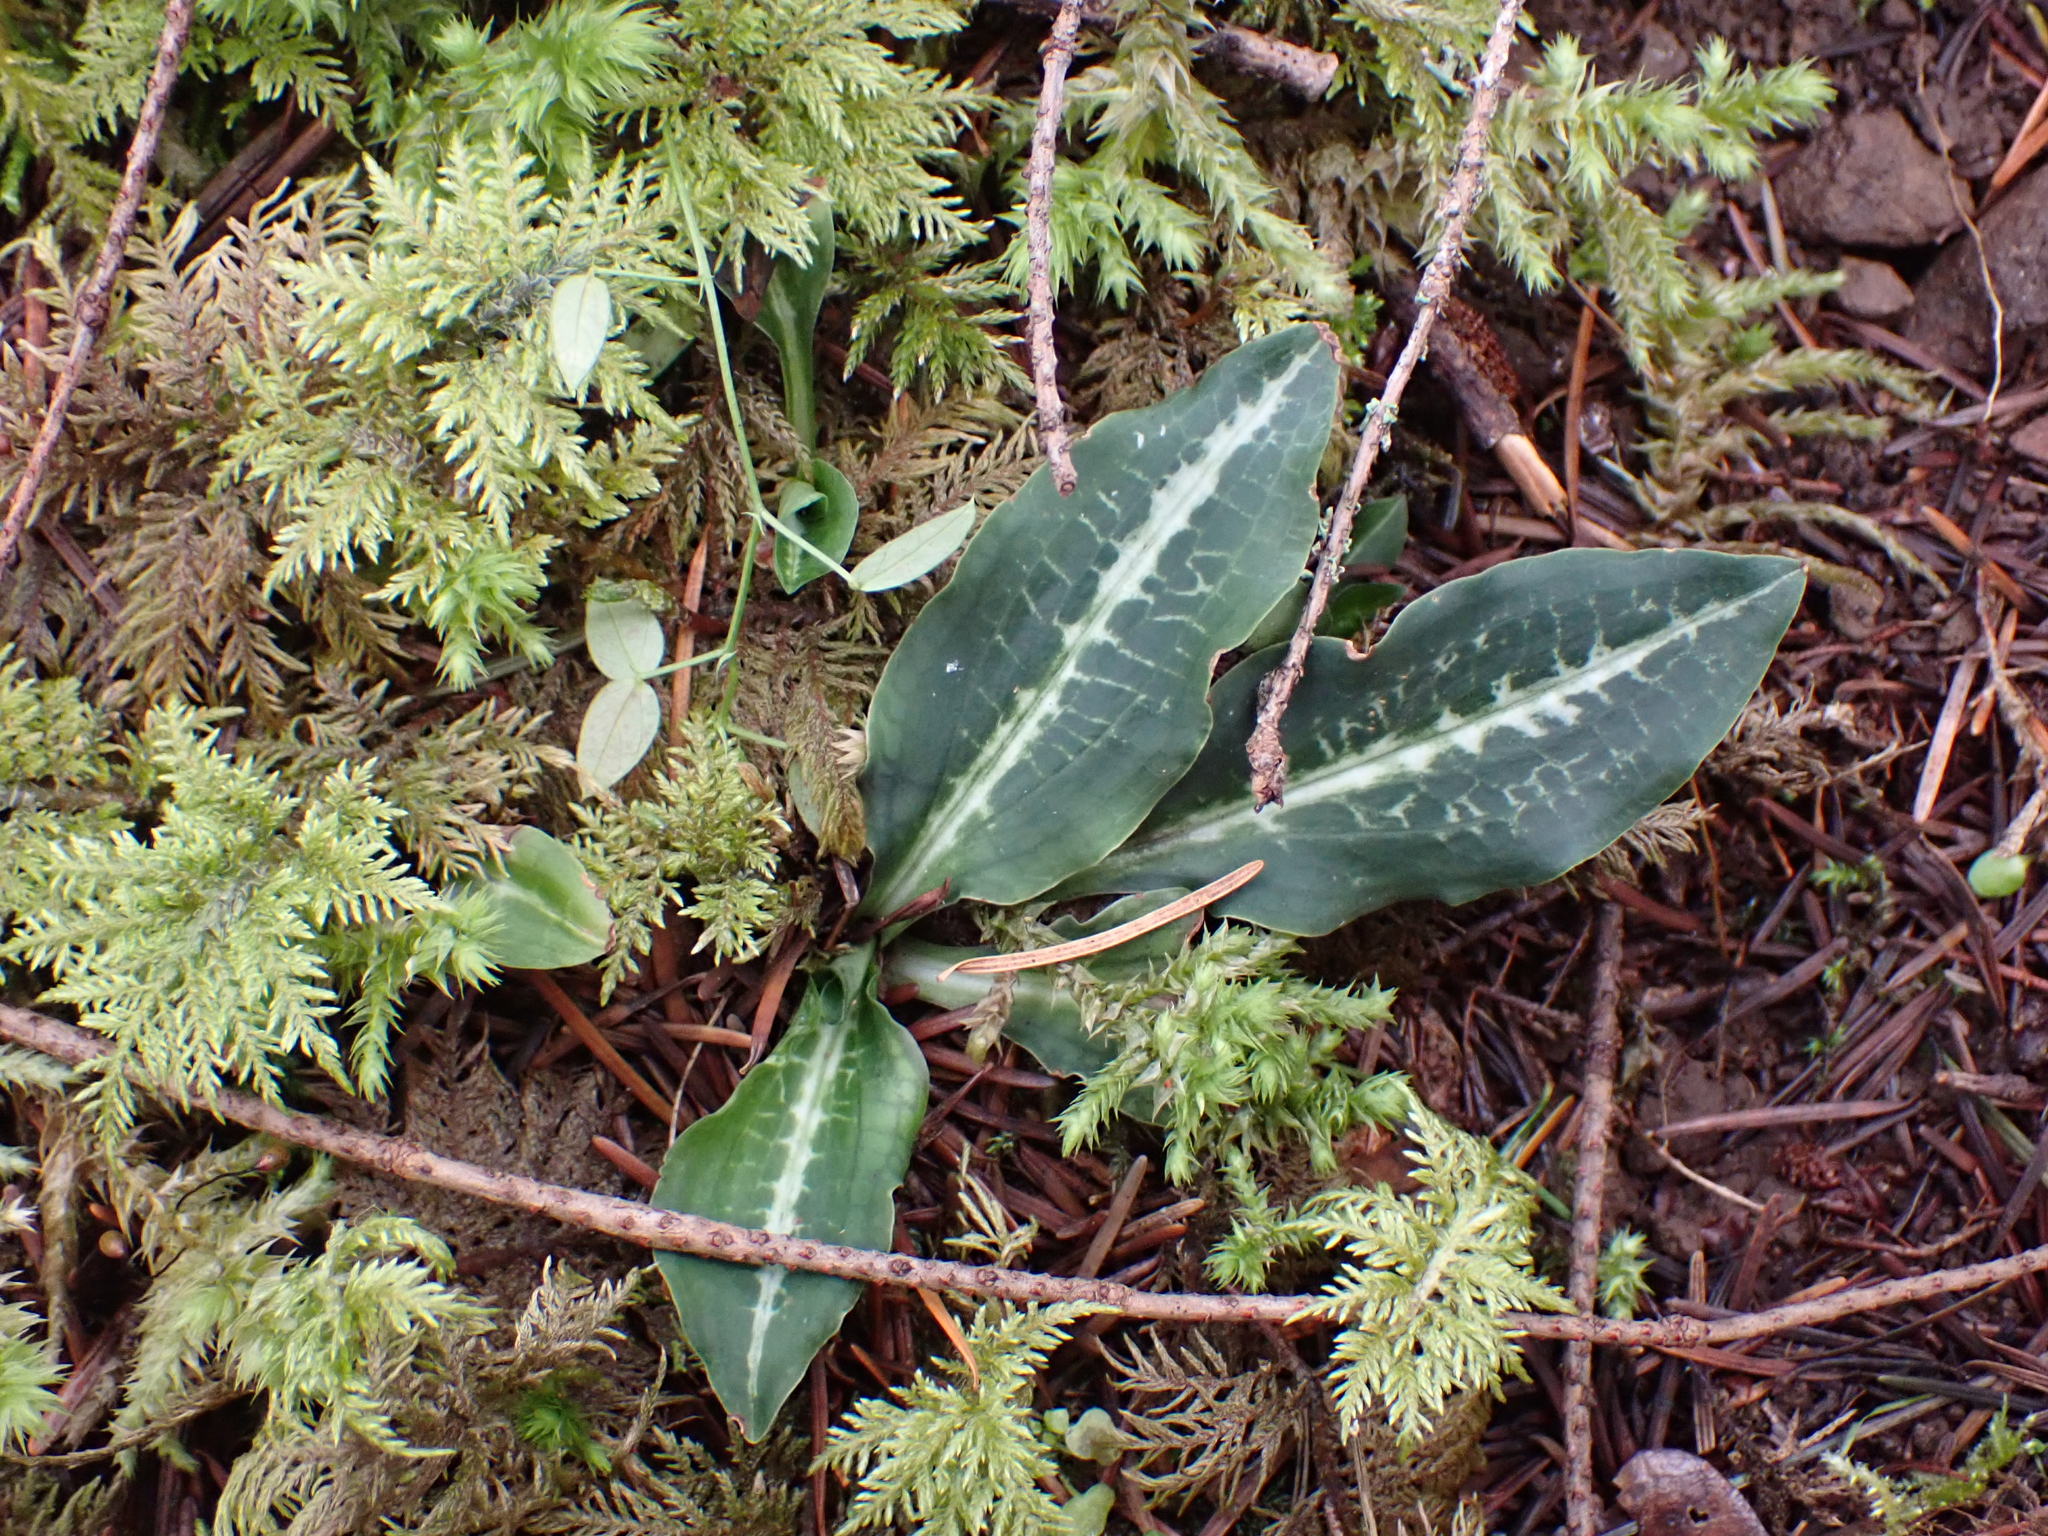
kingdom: Plantae
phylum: Tracheophyta
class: Liliopsida
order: Asparagales
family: Orchidaceae
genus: Goodyera
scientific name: Goodyera oblongifolia
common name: Giant rattlesnake-plantain
